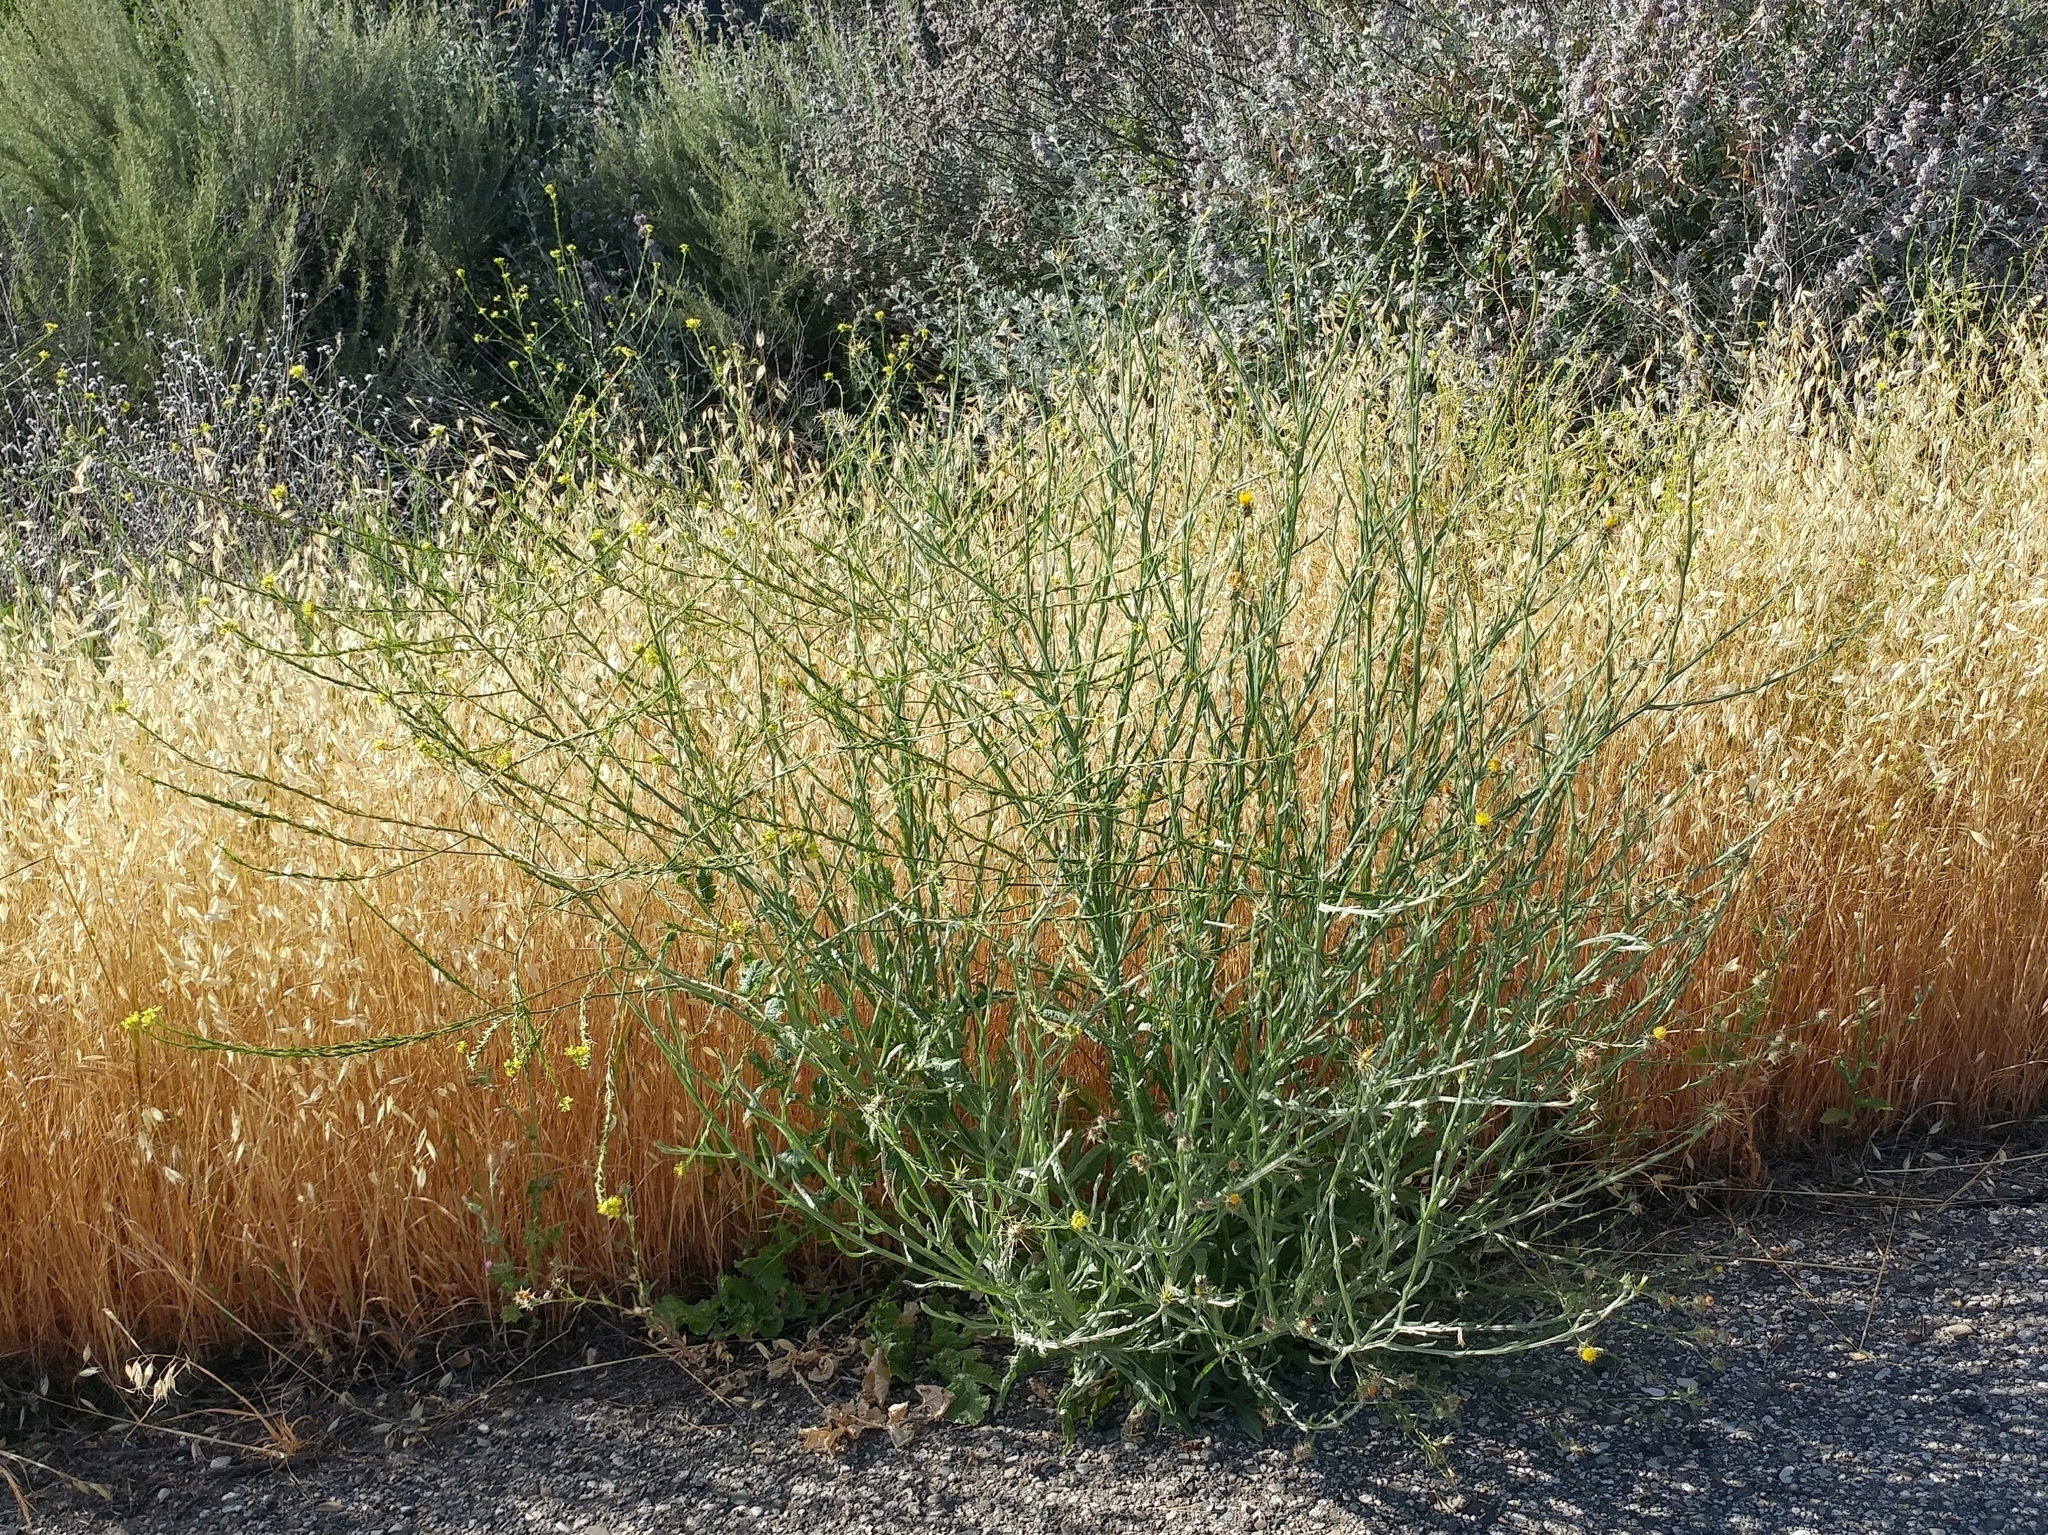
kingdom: Plantae
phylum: Tracheophyta
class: Magnoliopsida
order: Asterales
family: Asteraceae
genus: Centaurea
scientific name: Centaurea solstitialis
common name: Yellow star-thistle
